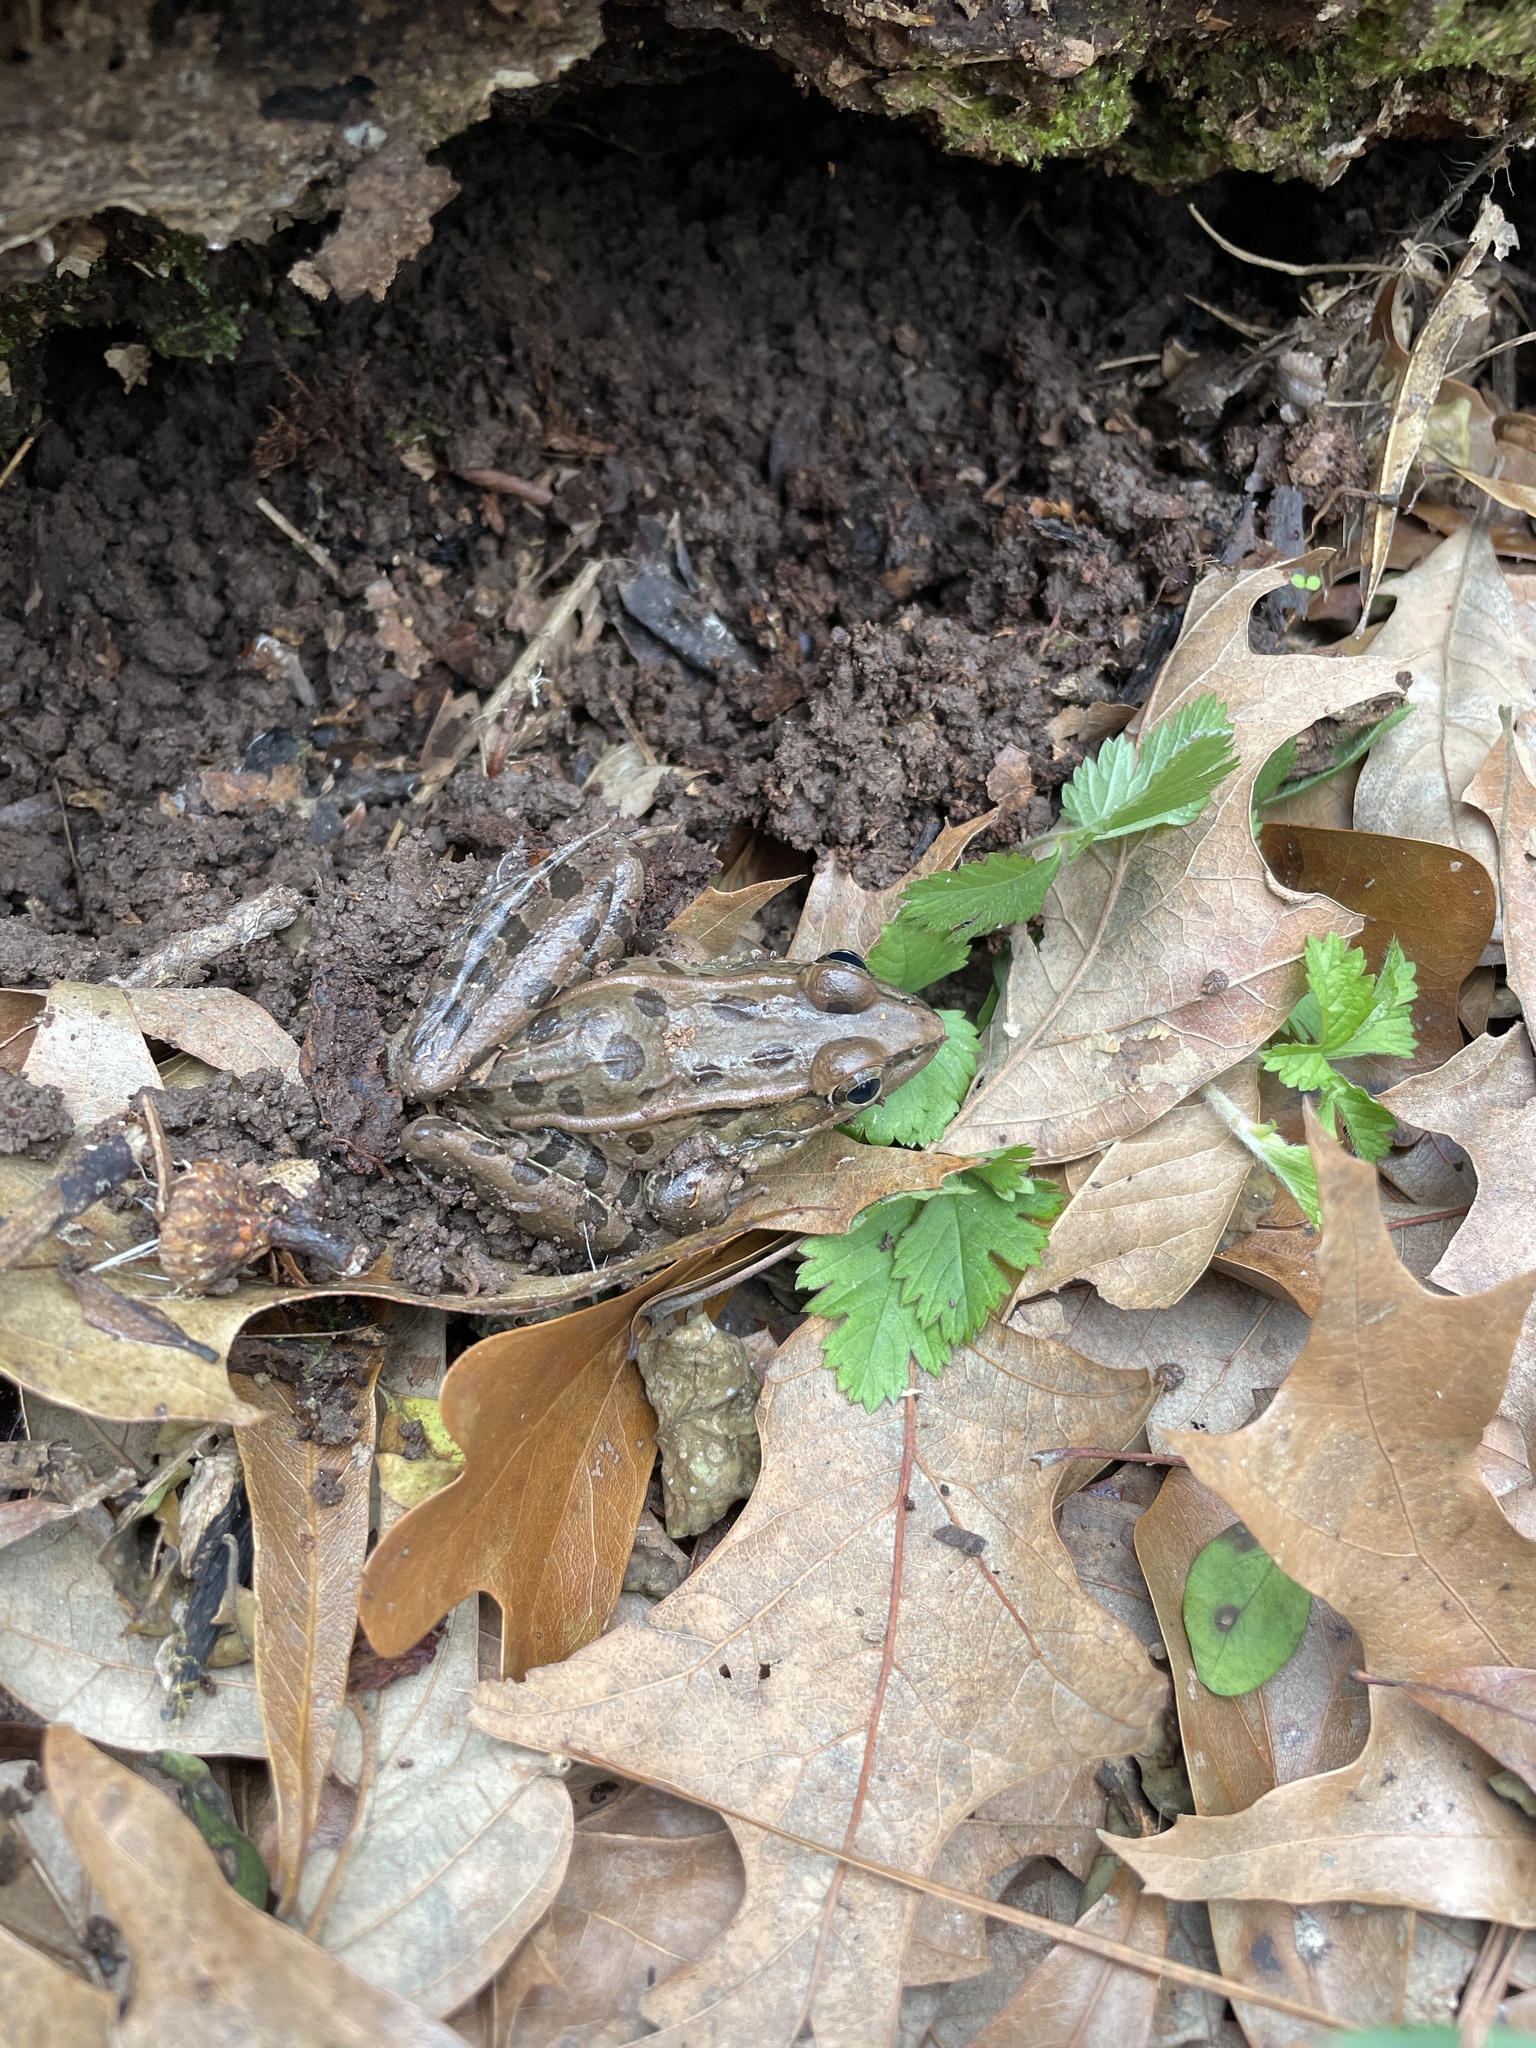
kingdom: Animalia
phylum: Chordata
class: Amphibia
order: Anura
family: Ranidae
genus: Lithobates
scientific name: Lithobates sphenocephalus
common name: Southern leopard frog
